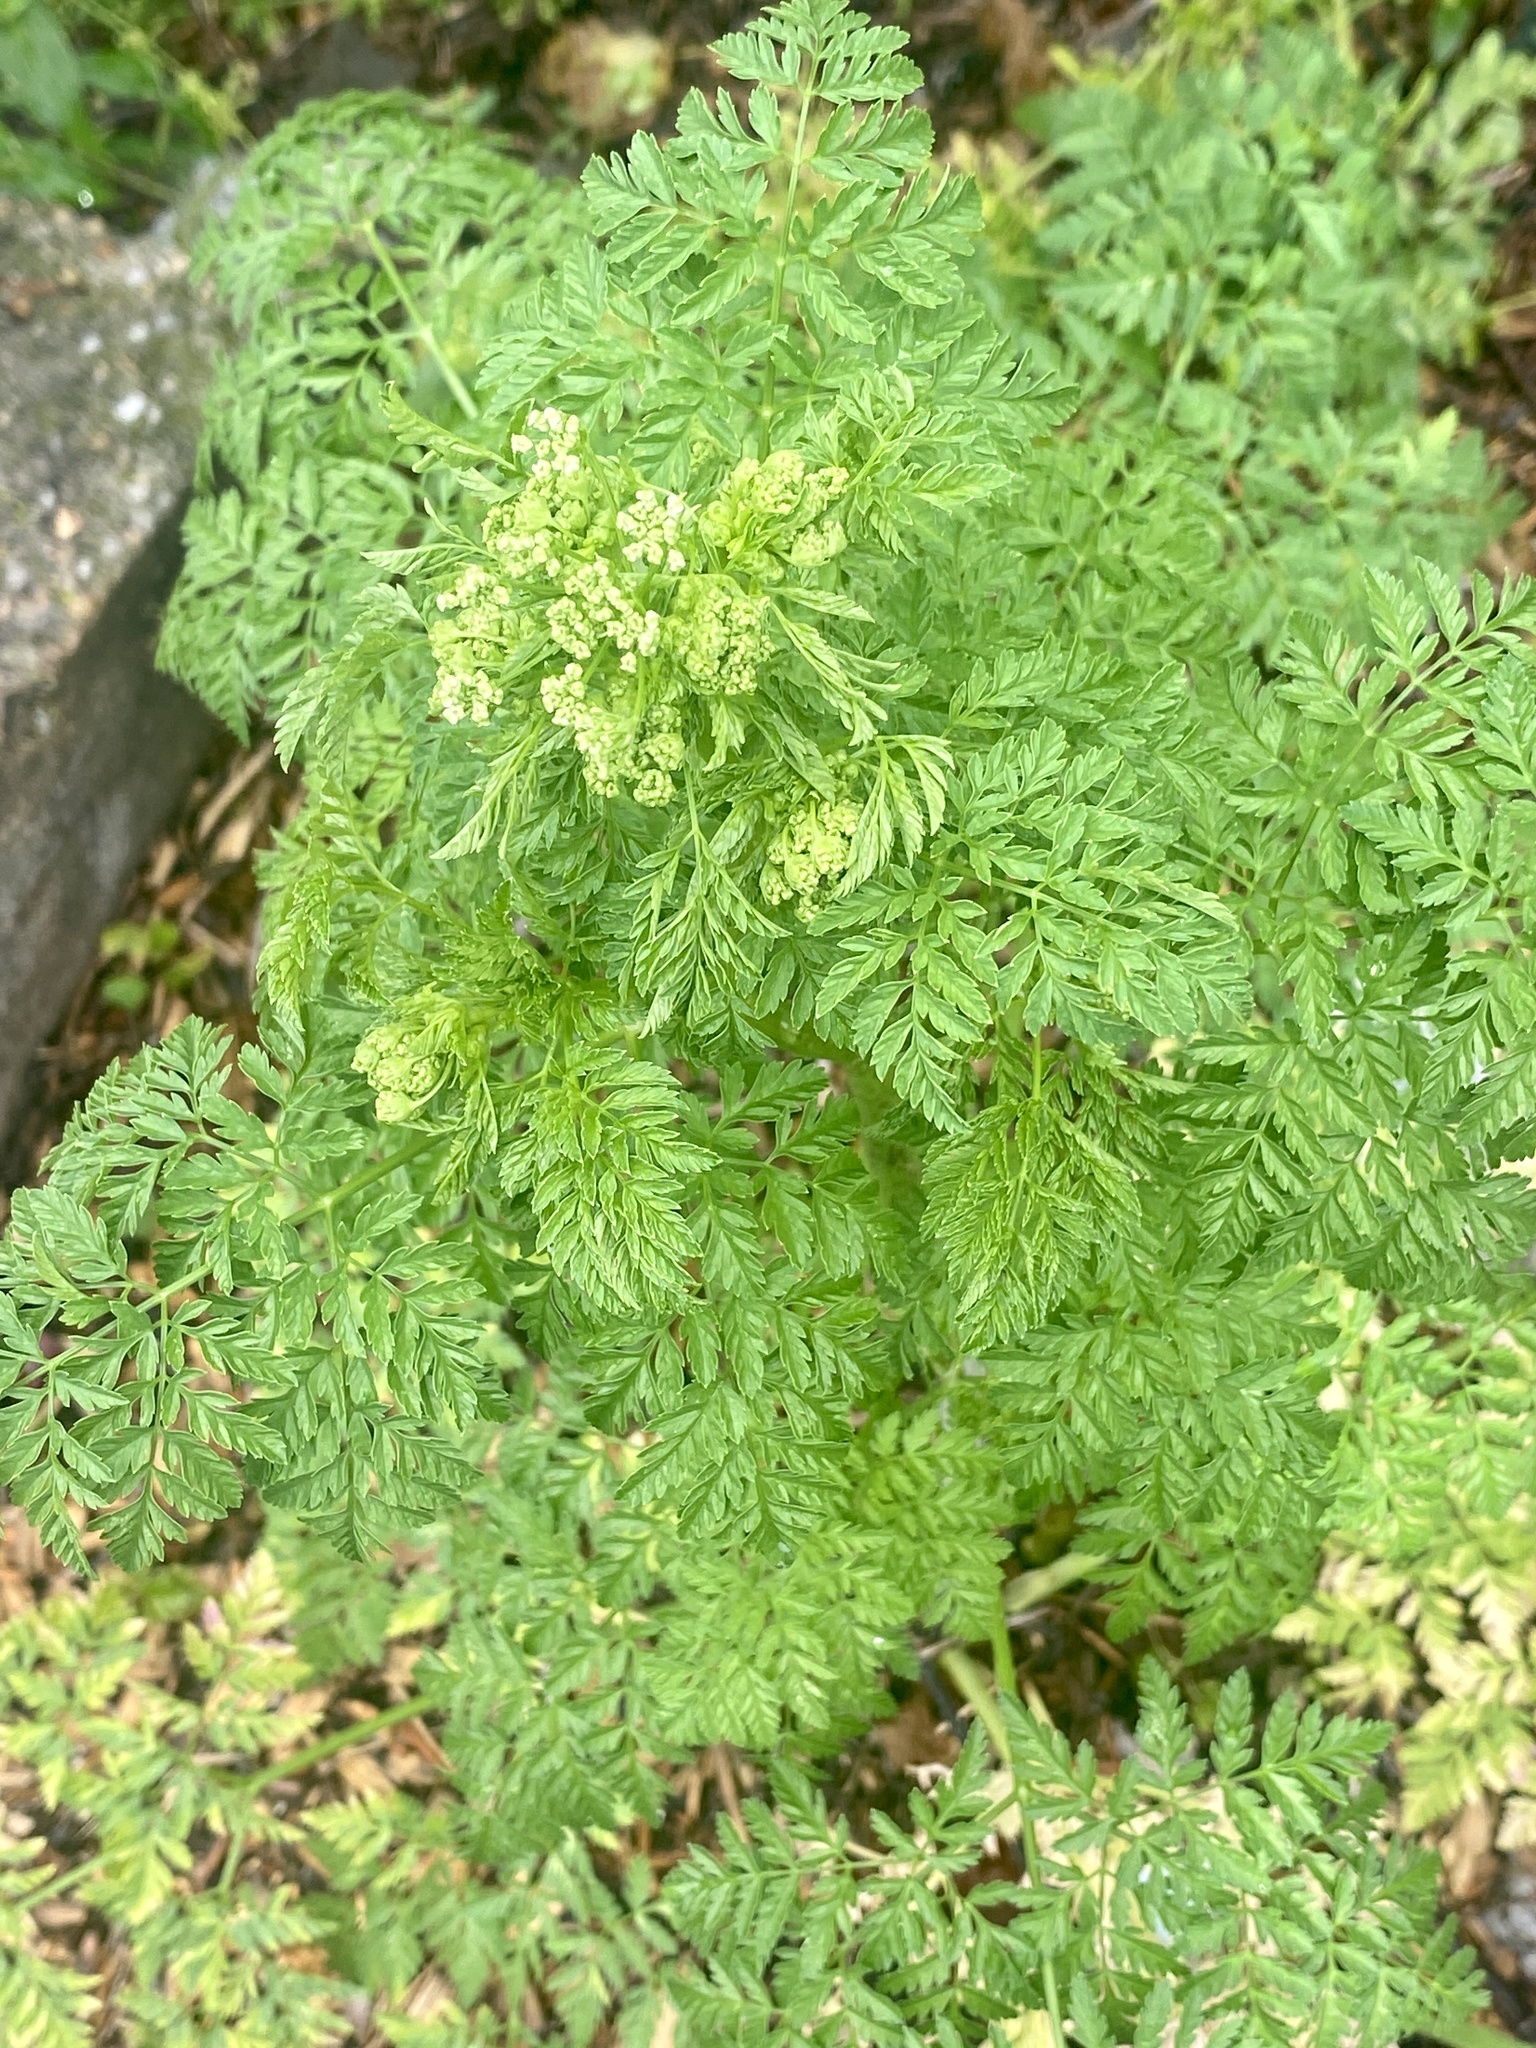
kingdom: Plantae
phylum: Tracheophyta
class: Magnoliopsida
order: Apiales
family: Apiaceae
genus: Conium
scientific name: Conium maculatum
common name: Hemlock
